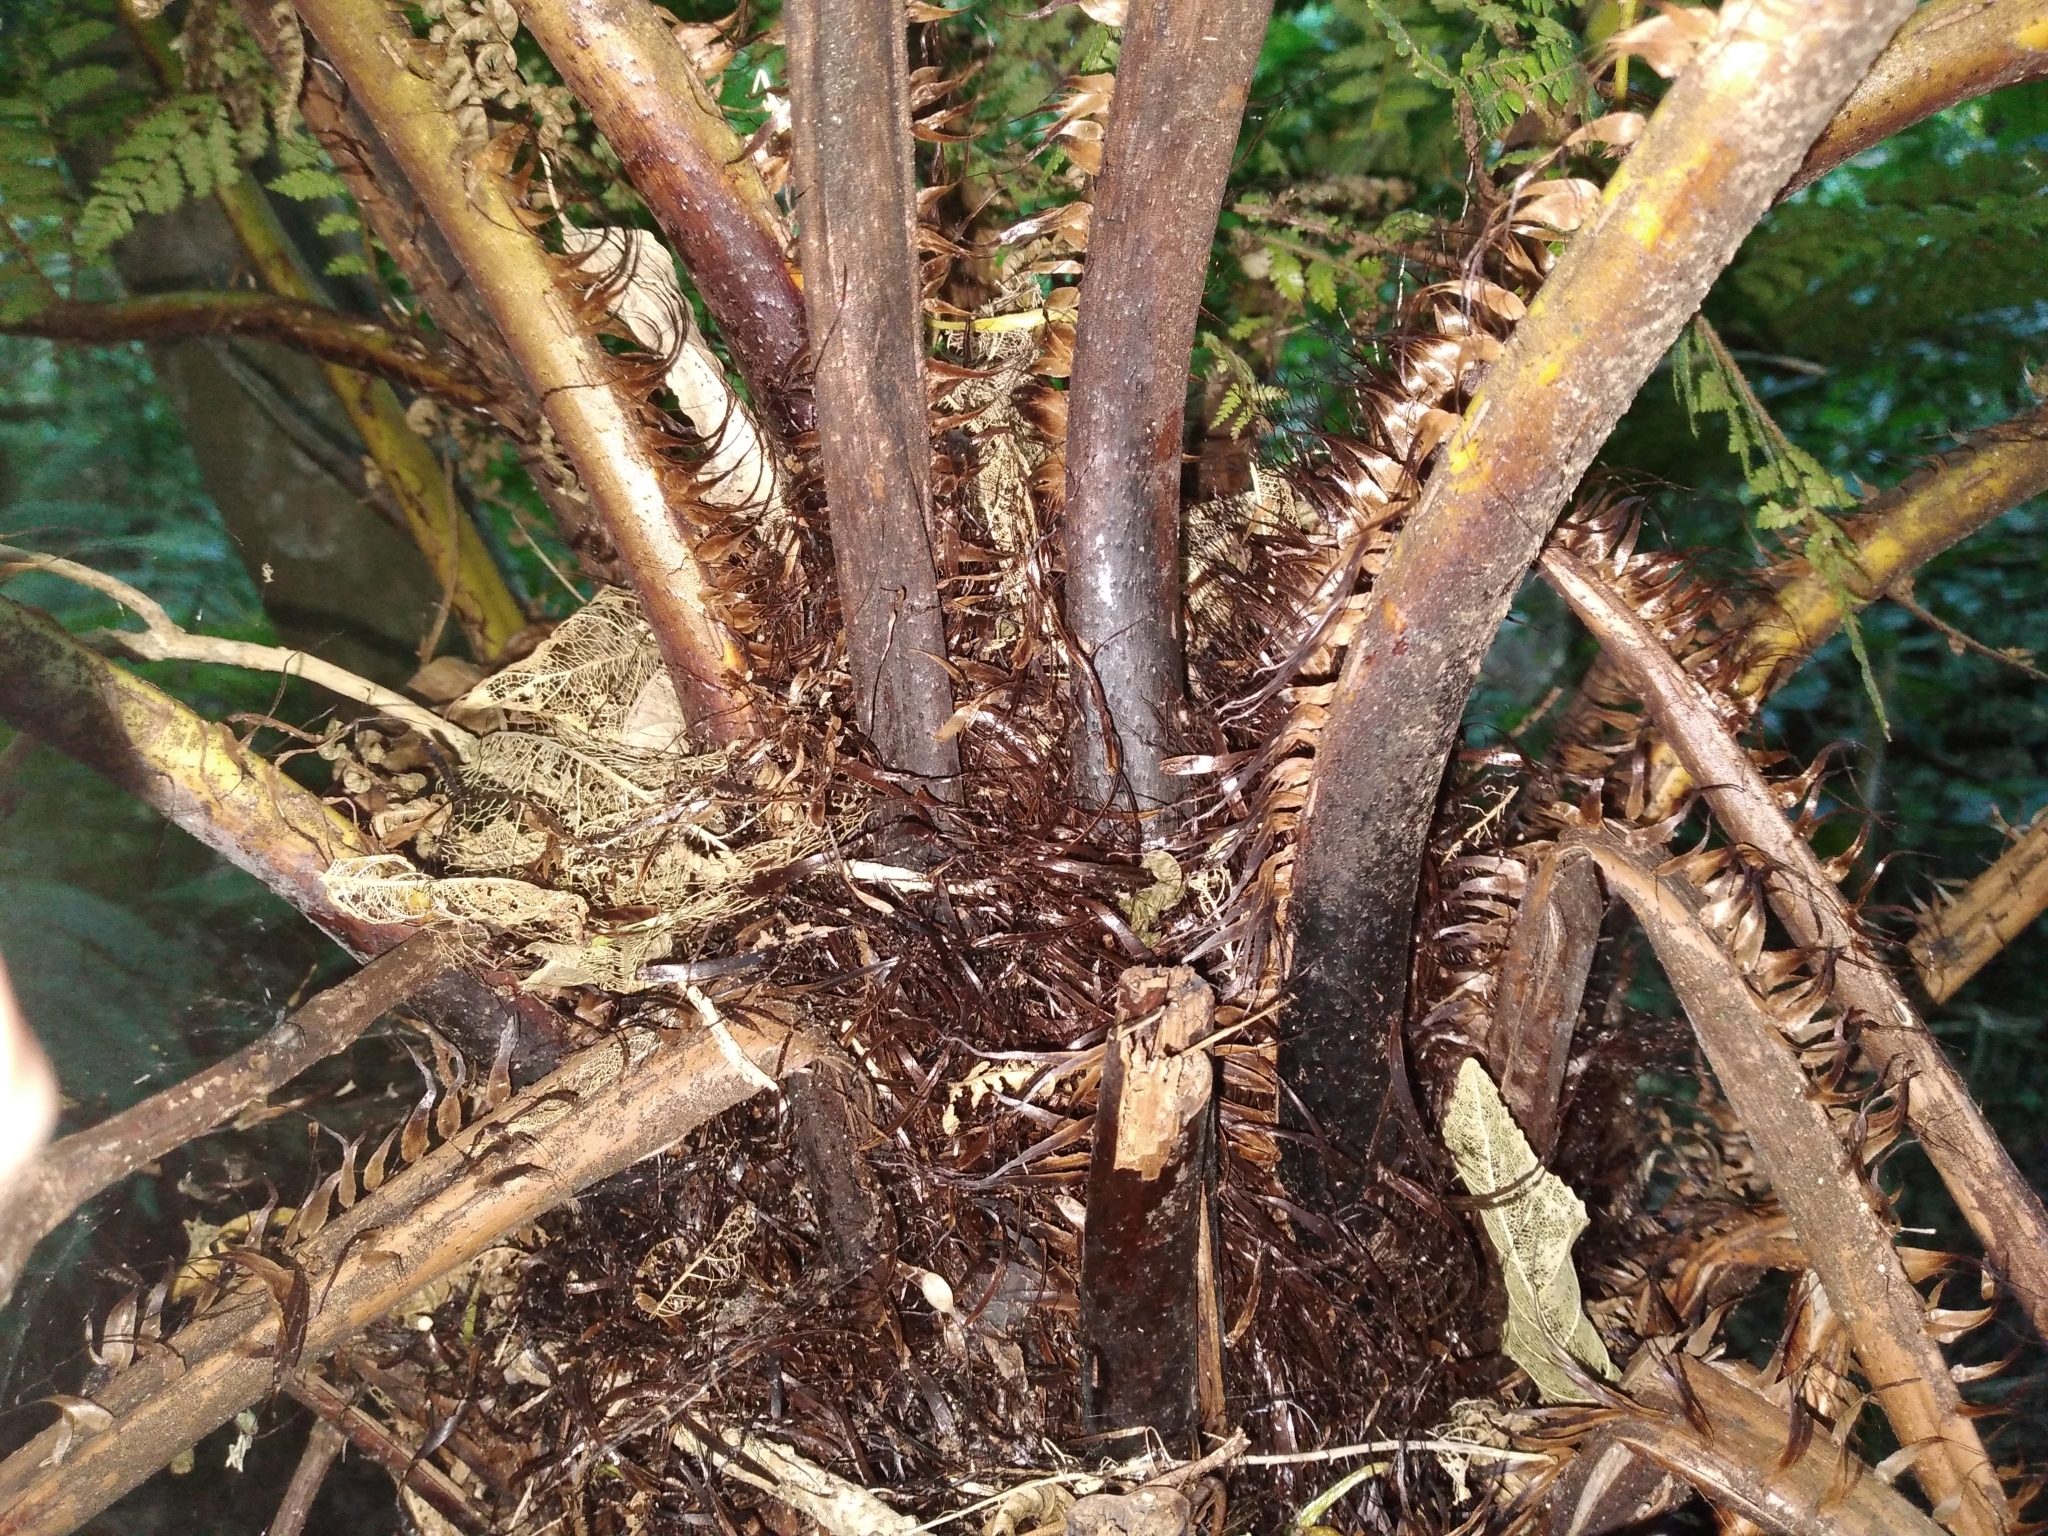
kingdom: Plantae
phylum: Tracheophyta
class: Polypodiopsida
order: Cyatheales
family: Cyatheaceae
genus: Alsophila
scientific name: Alsophila smithii
